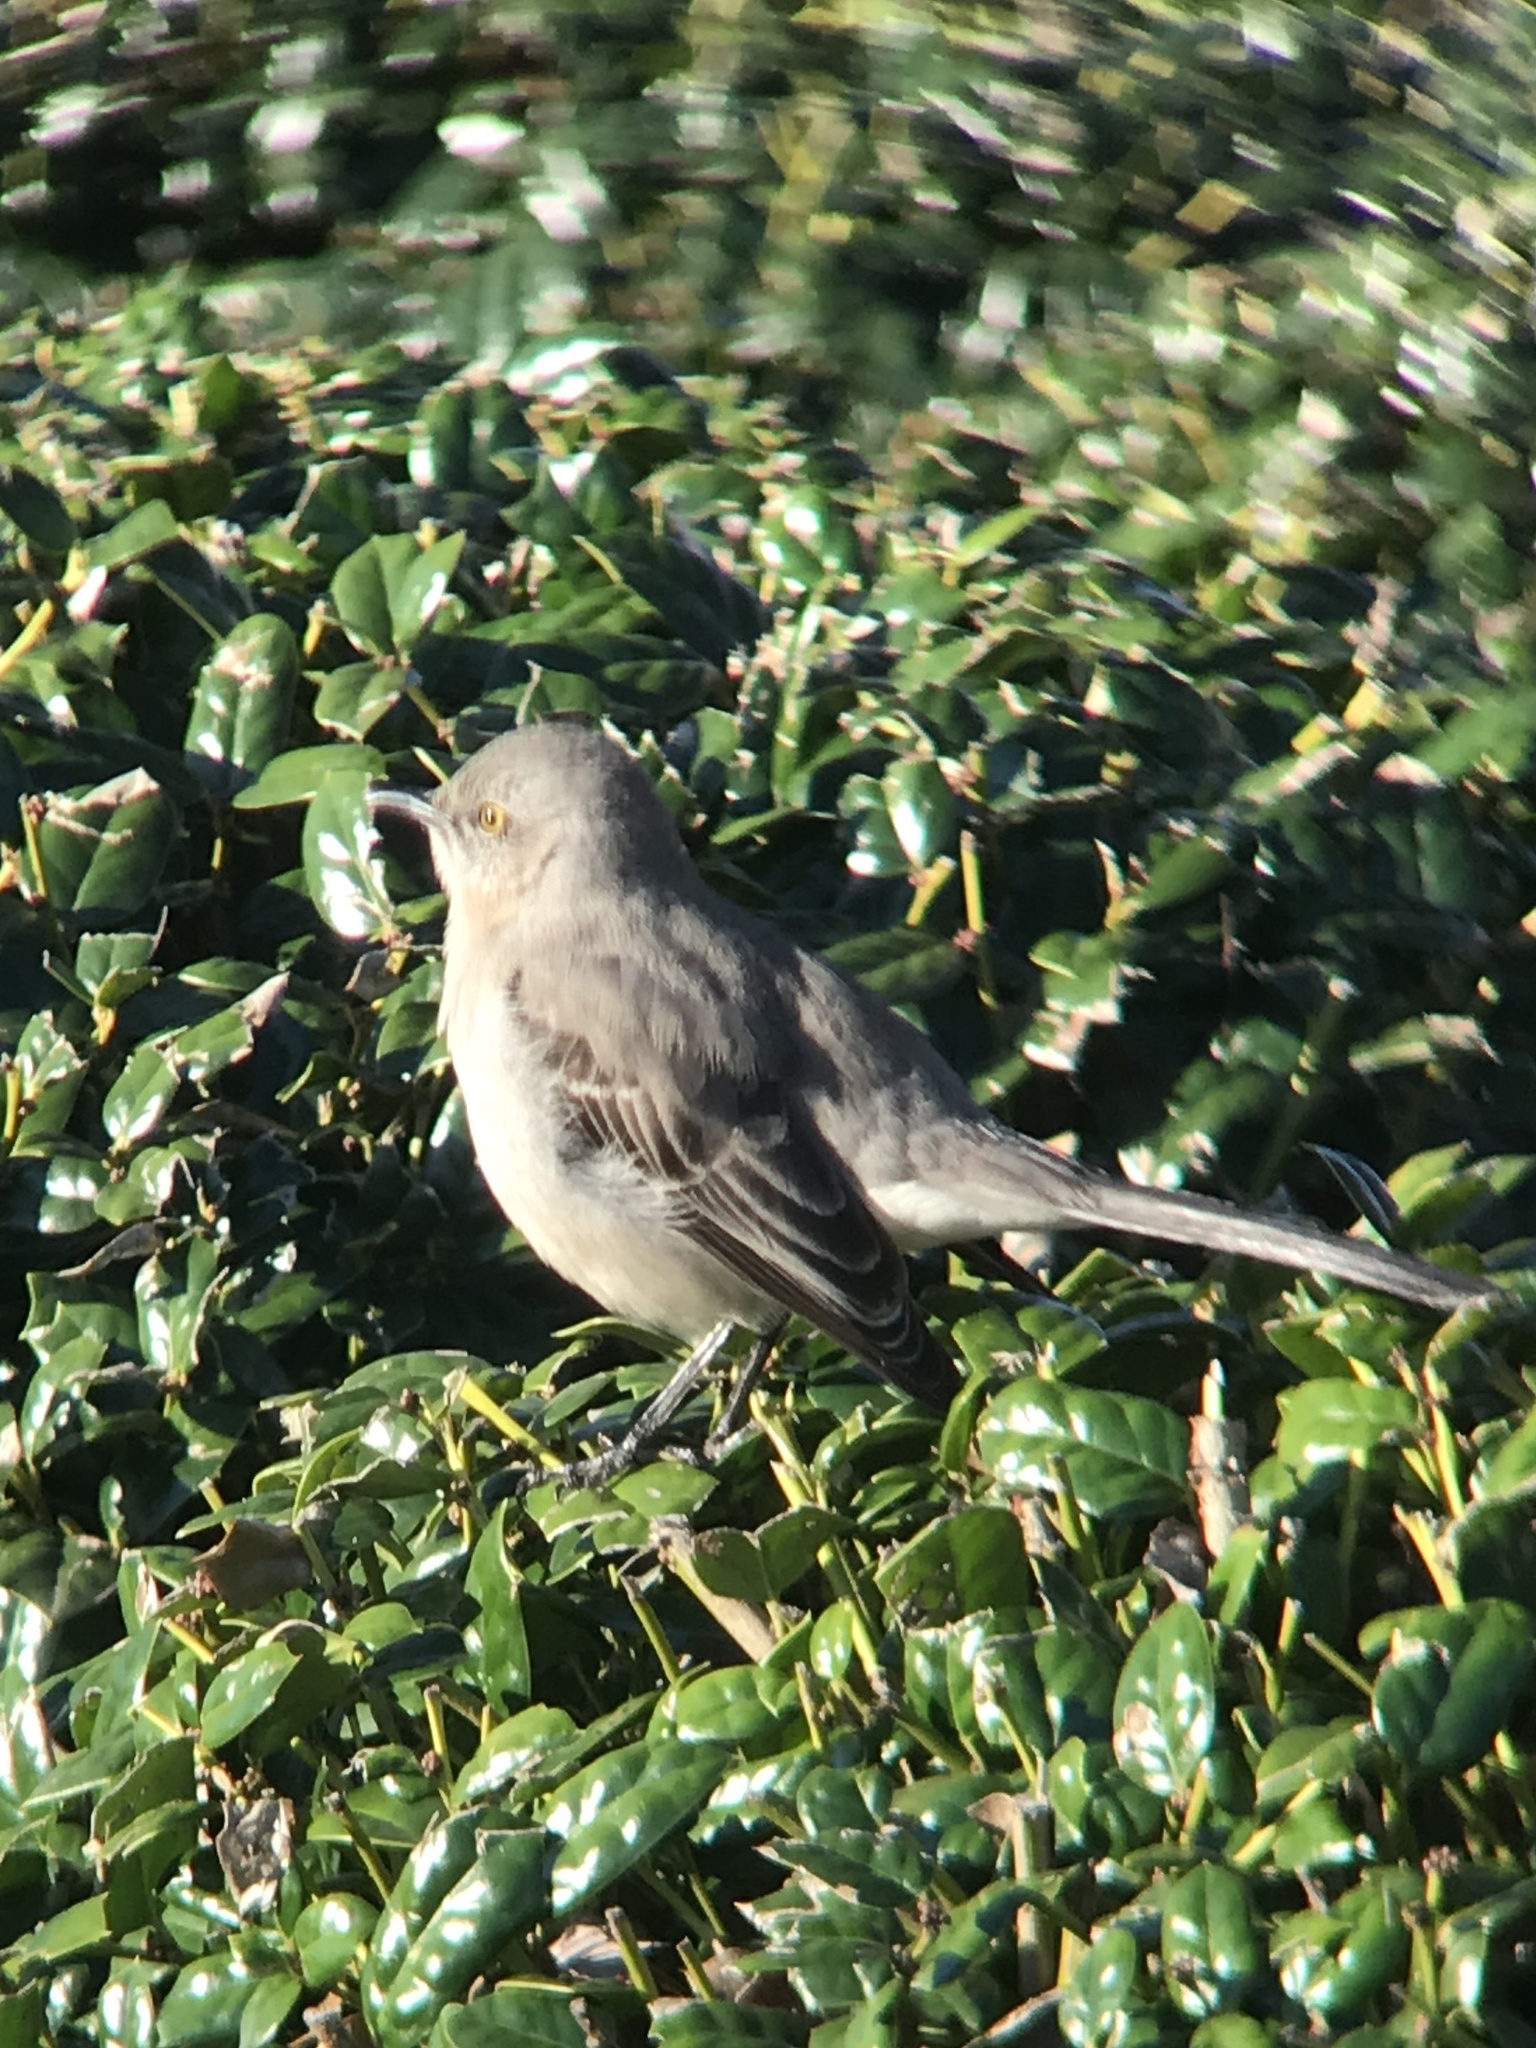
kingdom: Animalia
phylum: Chordata
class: Aves
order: Passeriformes
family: Mimidae
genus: Mimus
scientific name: Mimus polyglottos
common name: Northern mockingbird
